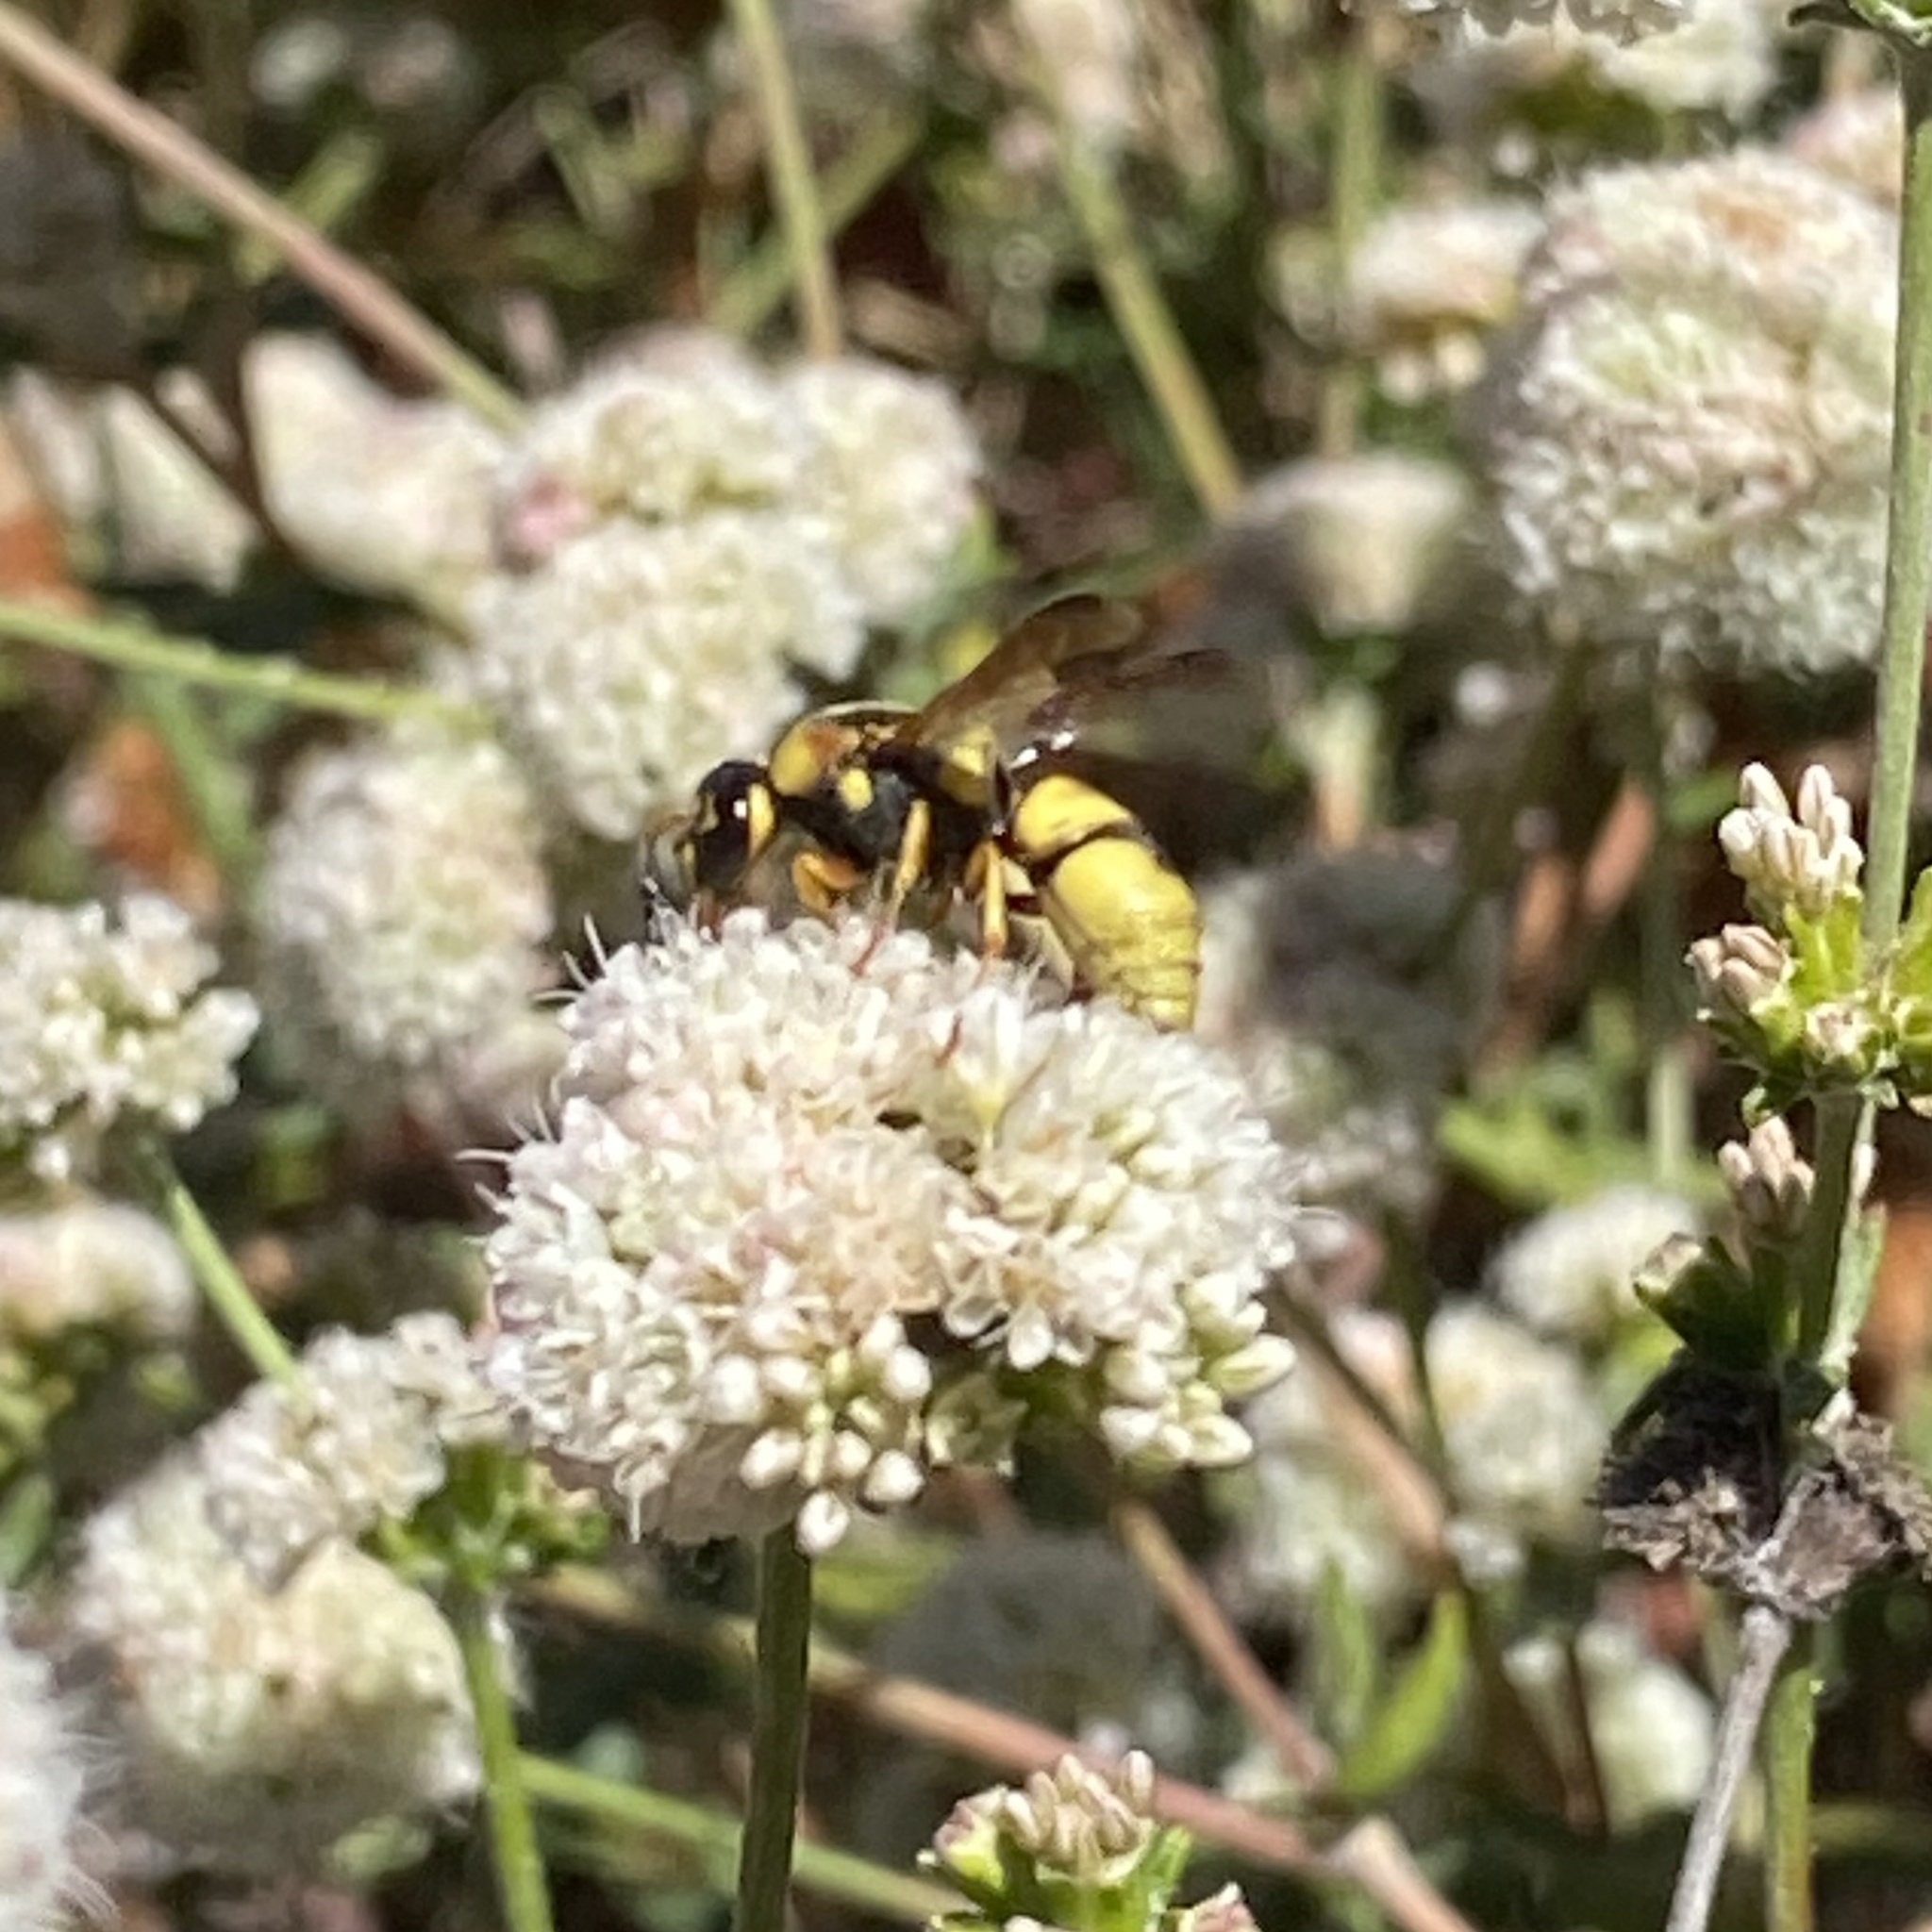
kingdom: Animalia
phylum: Arthropoda
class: Insecta
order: Hymenoptera
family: Eumenidae
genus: Euodynerus
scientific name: Euodynerus hidalgo
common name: Wasp
